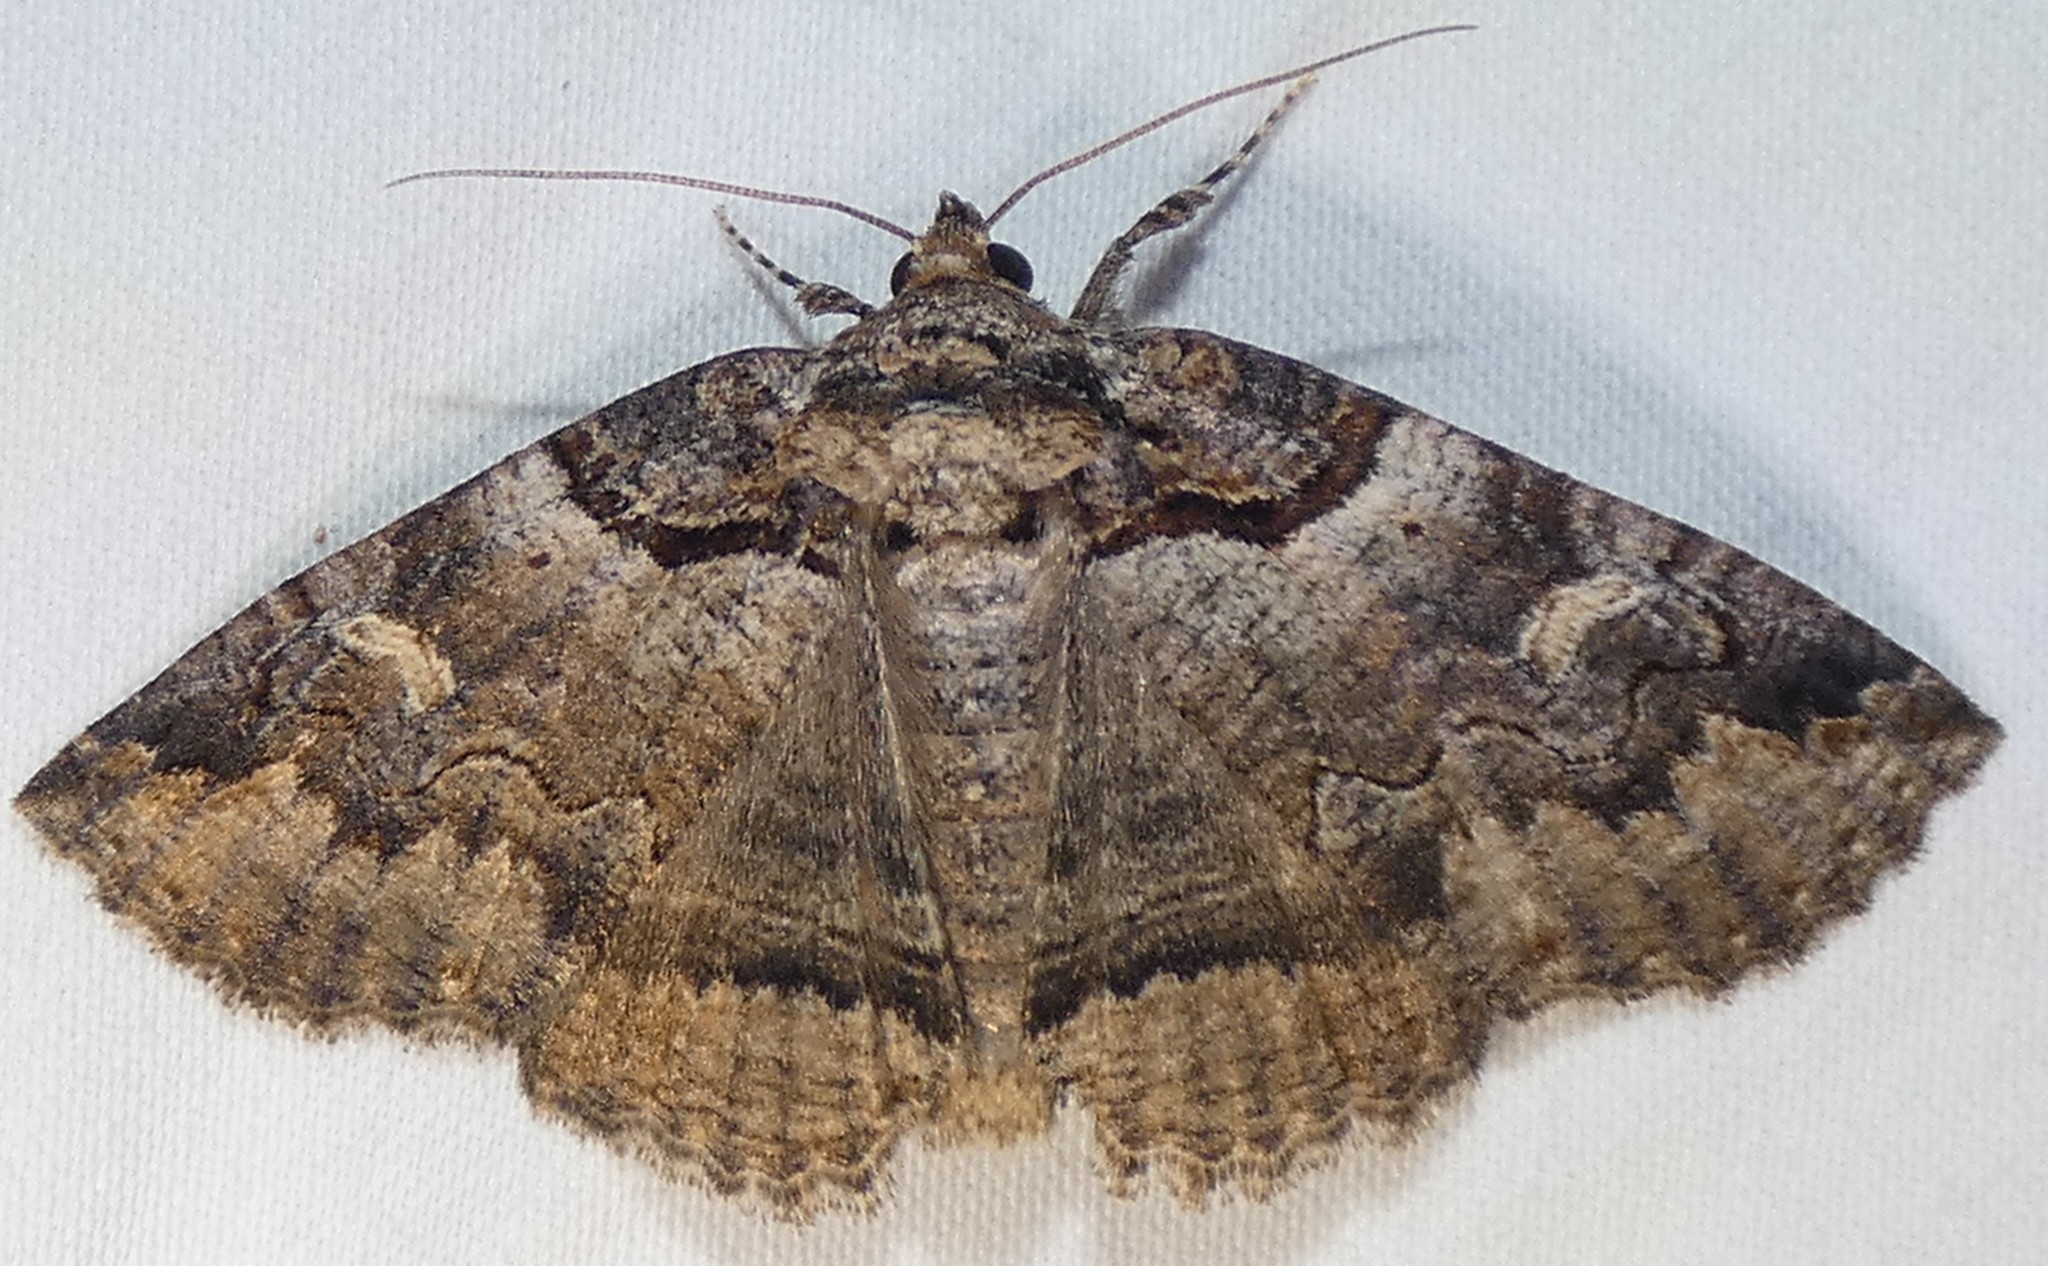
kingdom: Animalia
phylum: Arthropoda
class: Insecta
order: Lepidoptera
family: Erebidae
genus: Zale
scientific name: Zale intenta
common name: Intent zale moth
